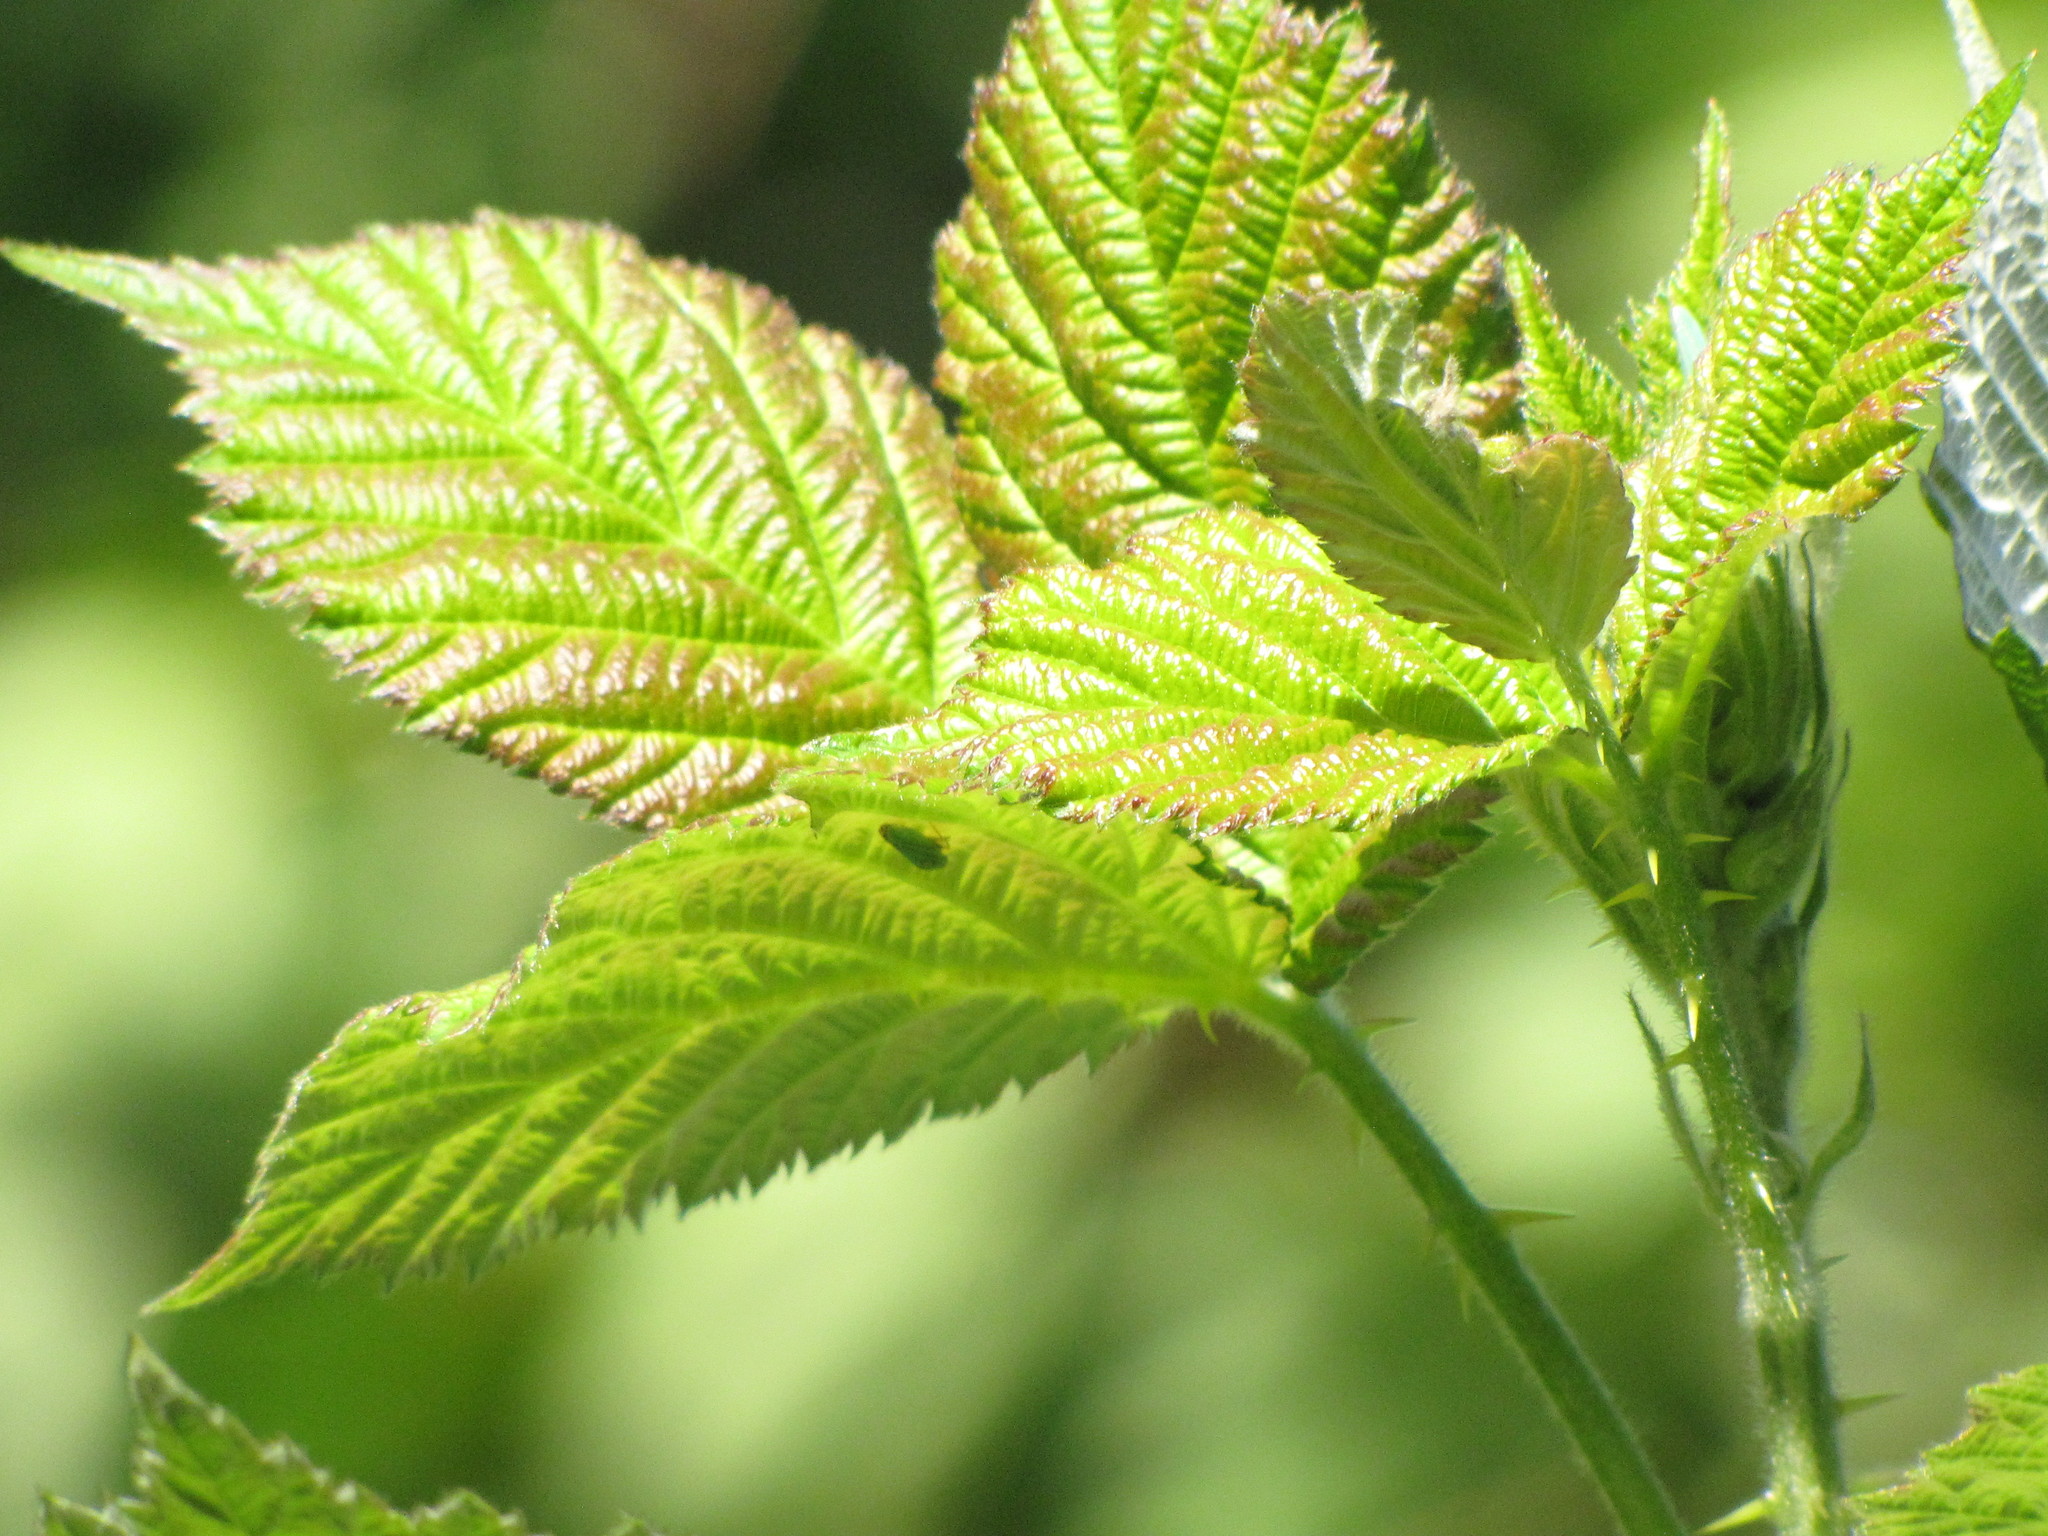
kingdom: Animalia
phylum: Arthropoda
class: Insecta
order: Hemiptera
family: Cicadellidae
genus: Graphocephala
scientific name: Graphocephala atropunctata
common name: Blue-green sharpshooter
